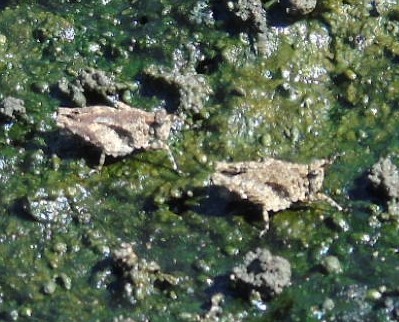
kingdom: Animalia
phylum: Arthropoda
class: Insecta
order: Orthoptera
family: Tetrigidae
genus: Paratettix
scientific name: Paratettix mexicanus
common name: Mexican pygmy grasshopper
